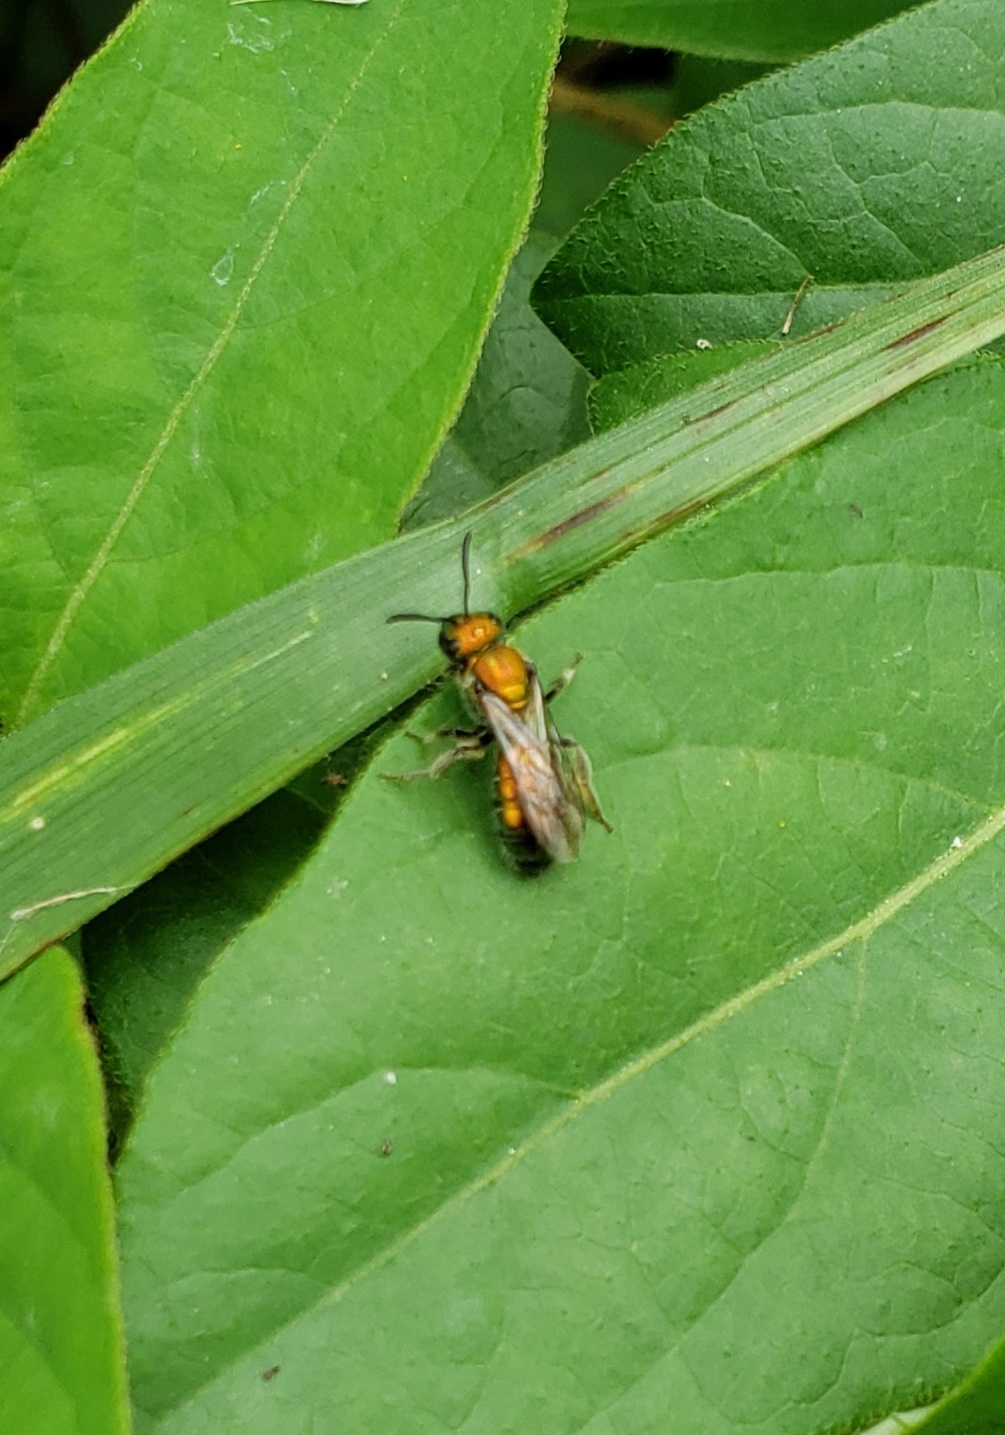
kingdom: Animalia
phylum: Arthropoda
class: Insecta
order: Hymenoptera
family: Halictidae
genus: Augochlora
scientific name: Augochlora pura
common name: Pure green sweat bee
